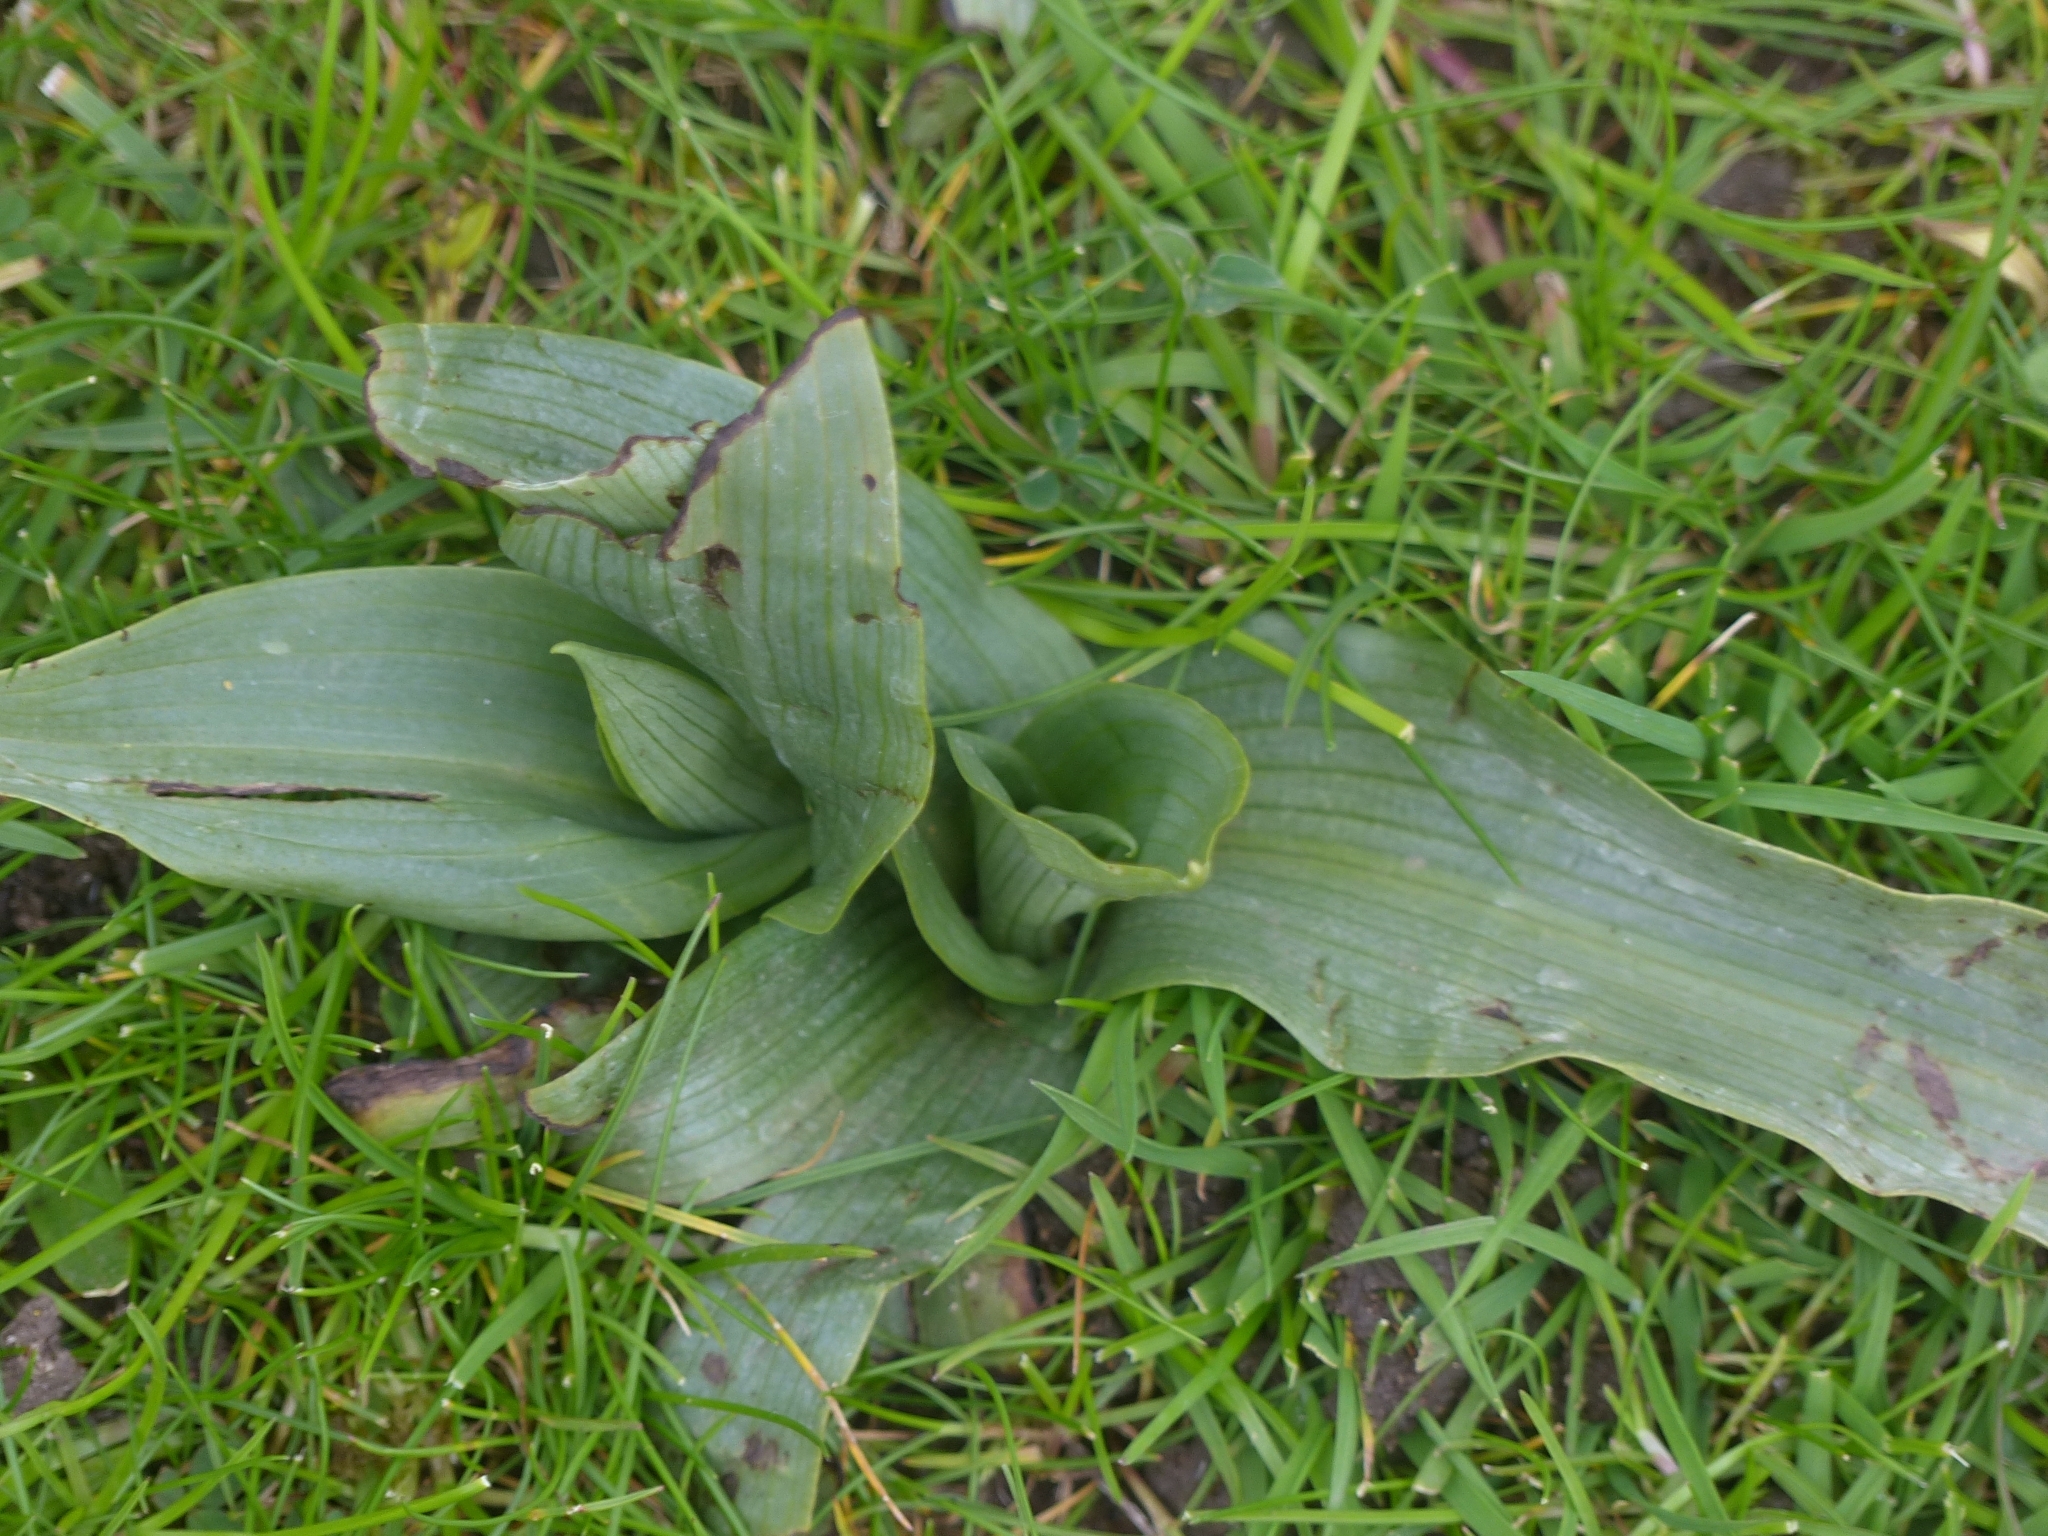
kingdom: Plantae
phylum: Tracheophyta
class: Liliopsida
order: Asparagales
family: Orchidaceae
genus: Ophrys
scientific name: Ophrys apifera
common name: Bee orchid
